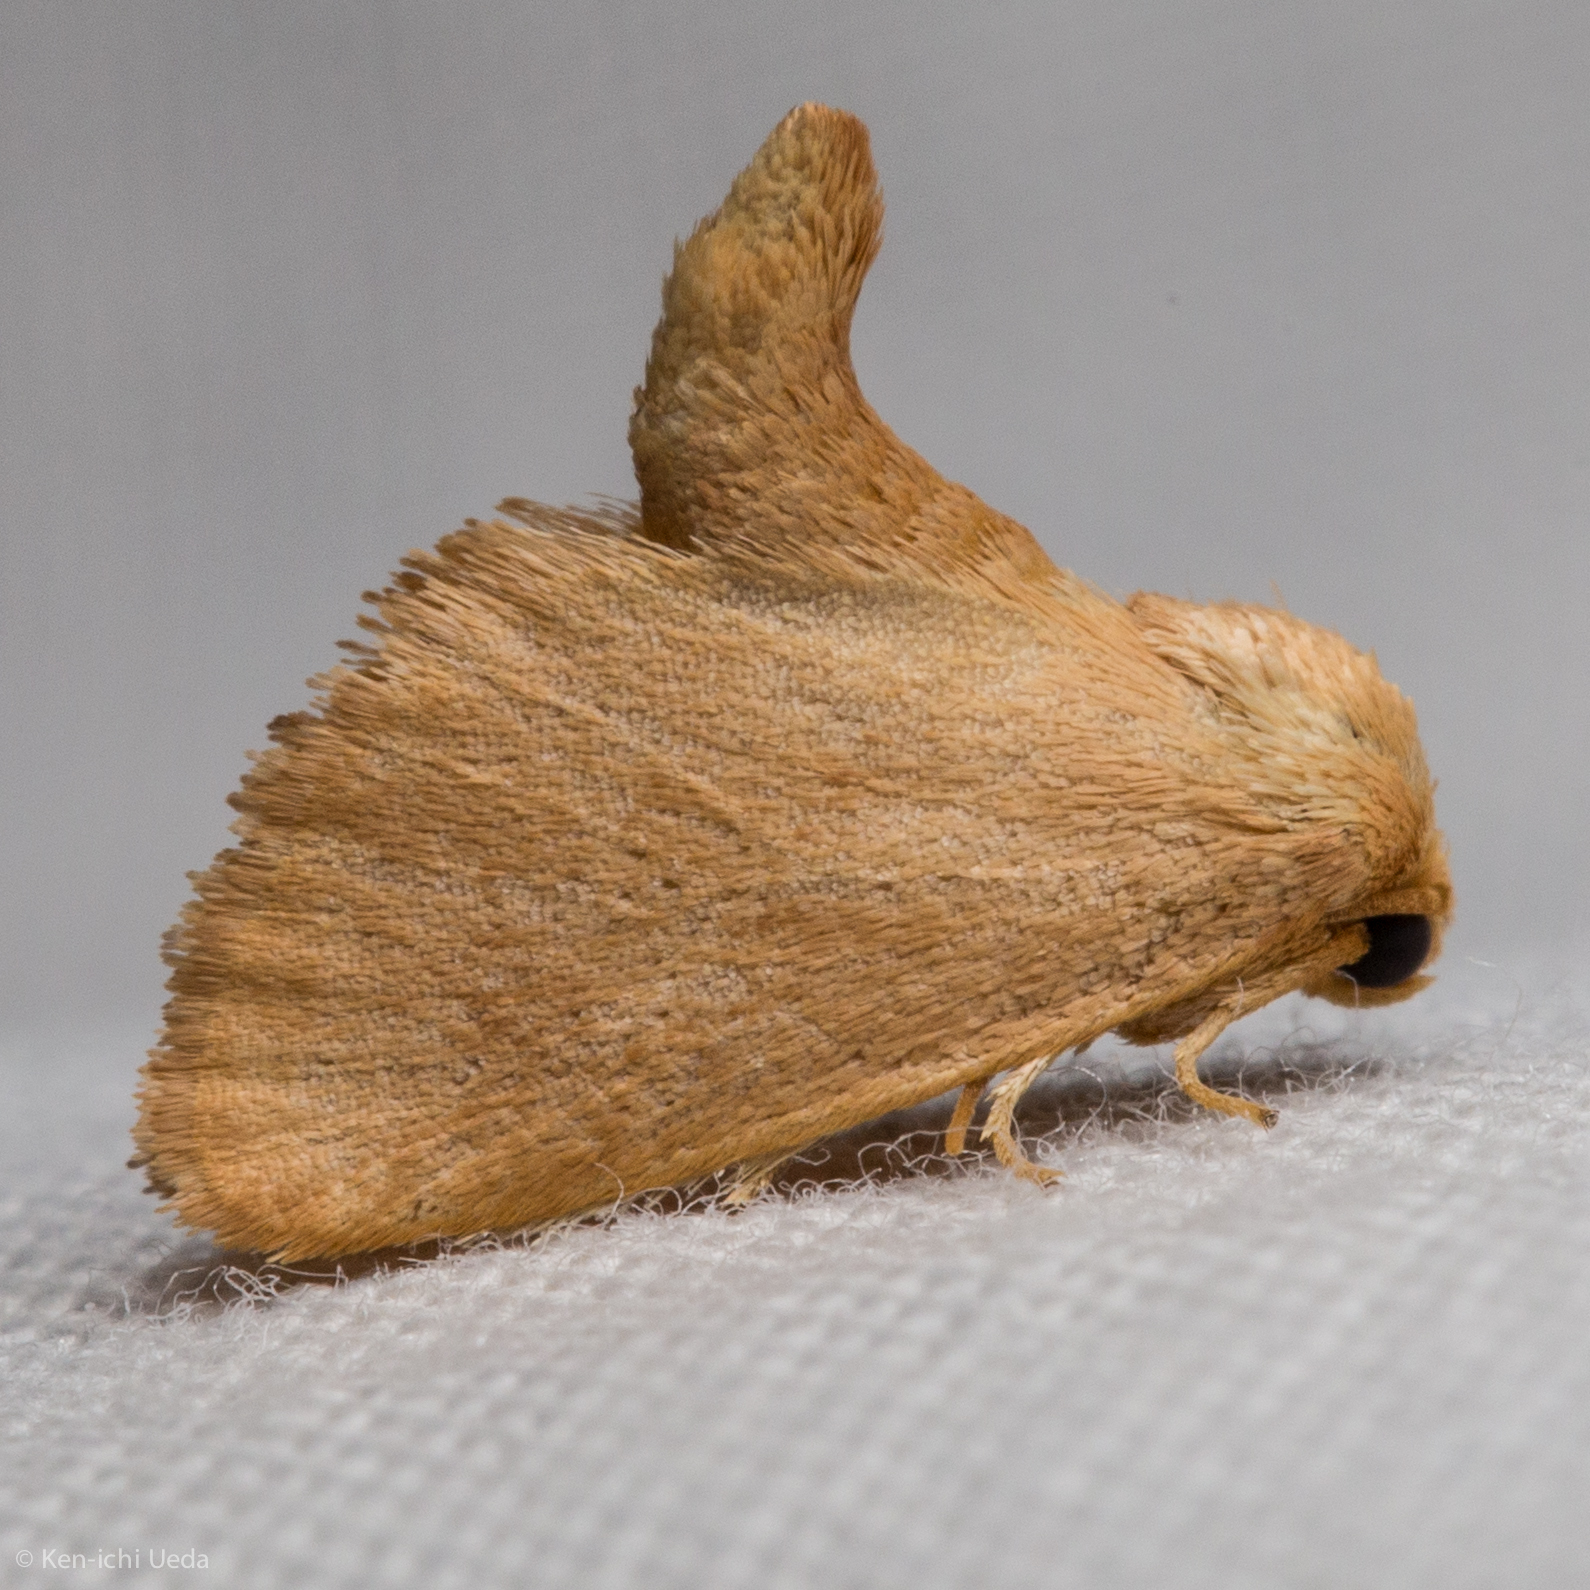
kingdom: Animalia
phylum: Arthropoda
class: Insecta
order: Lepidoptera
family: Limacodidae
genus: Tortricidia
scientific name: Tortricidia pallida
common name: Red-crossed button slug moth
